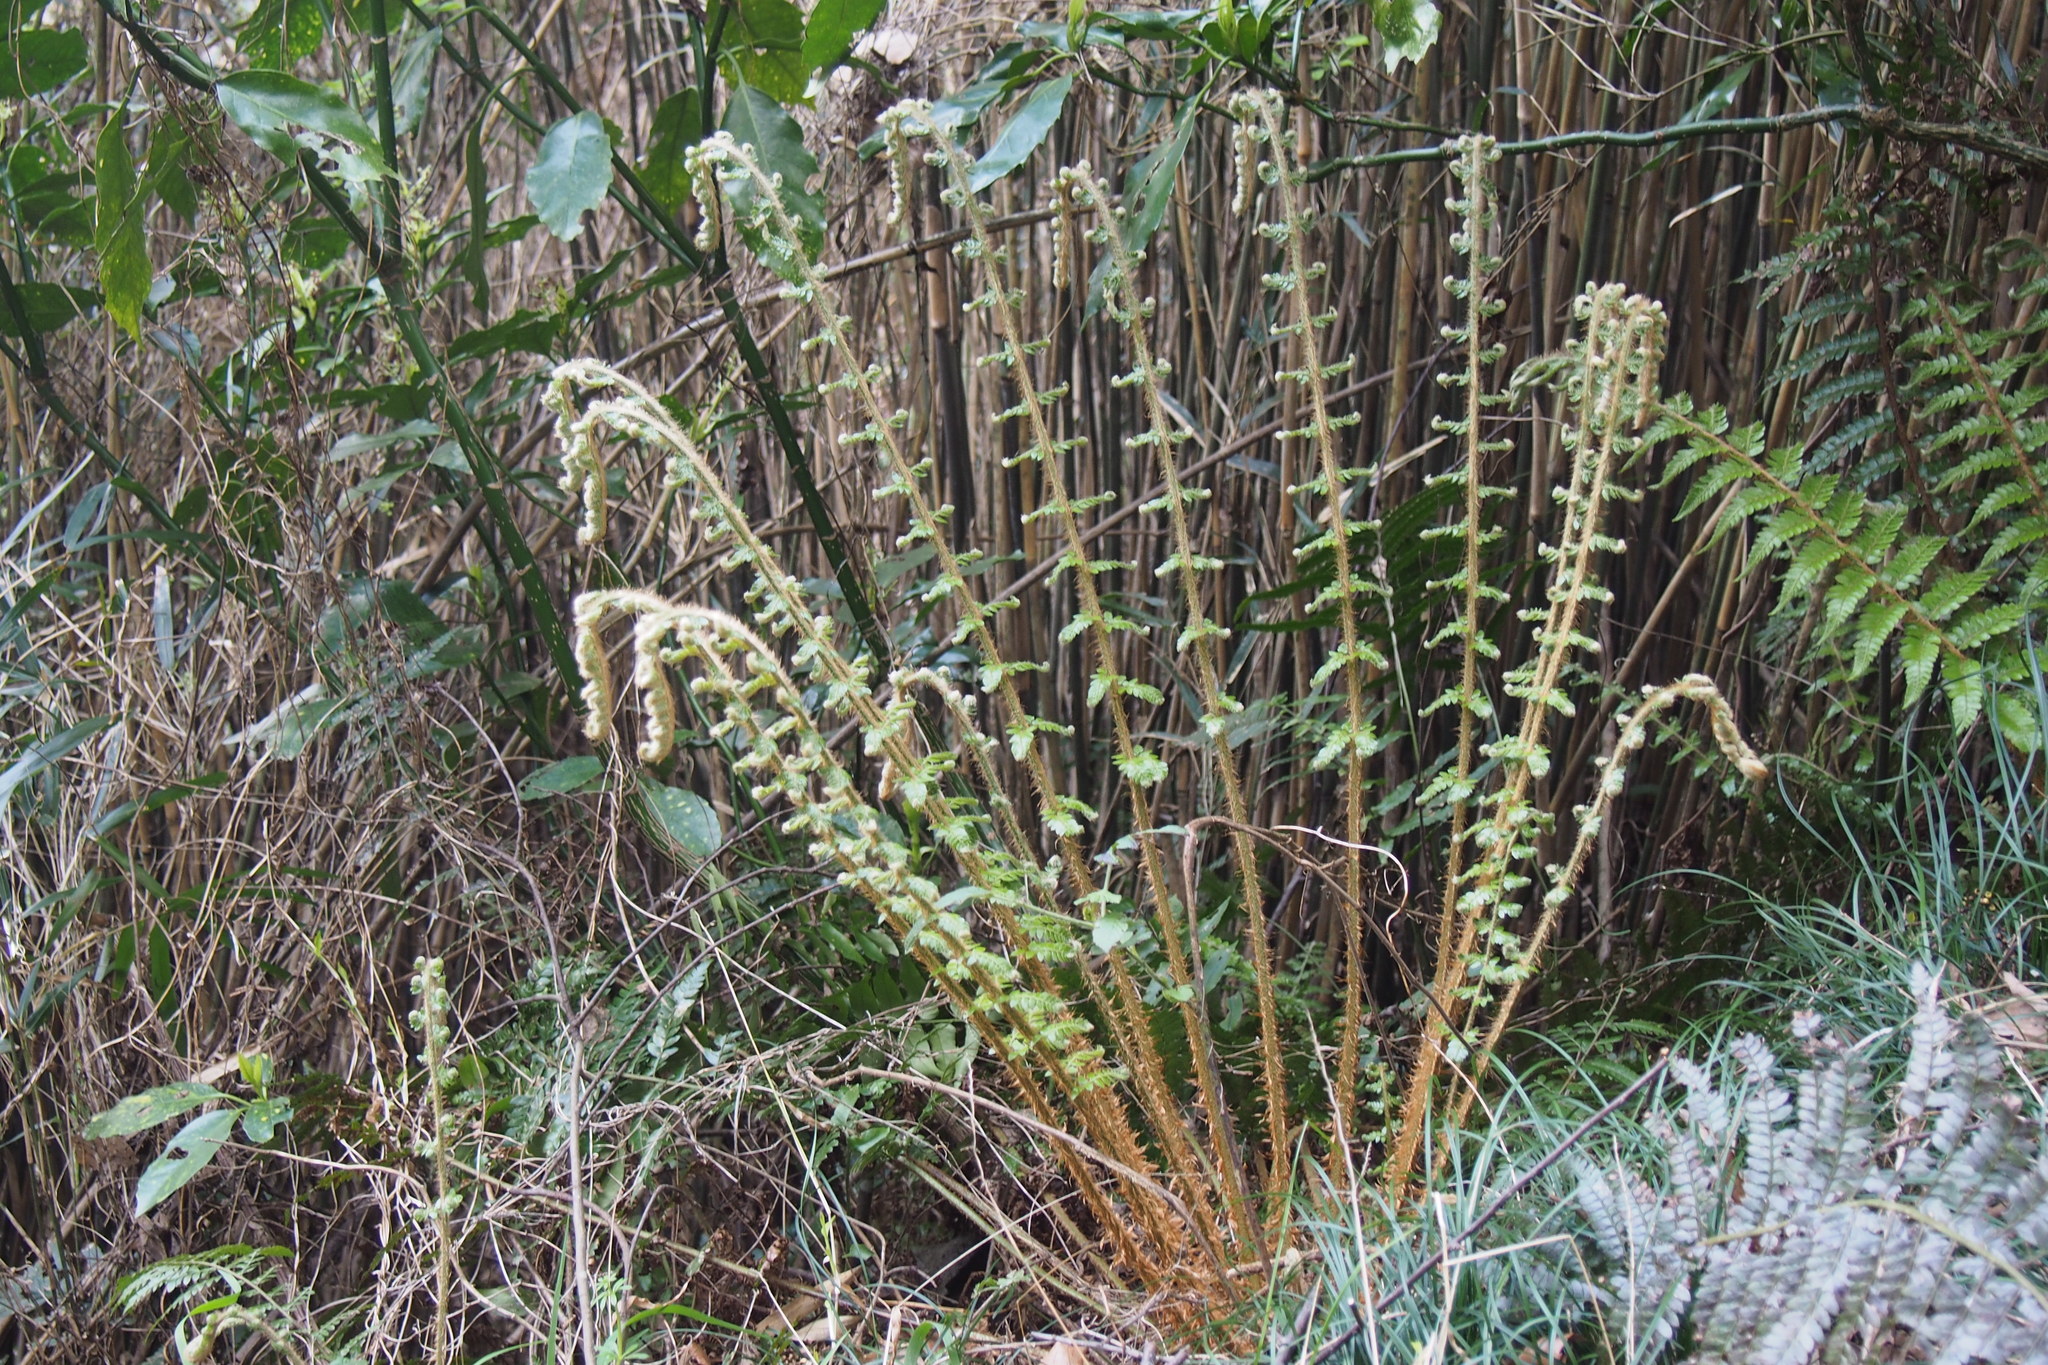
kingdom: Plantae
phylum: Tracheophyta
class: Polypodiopsida
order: Polypodiales
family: Dryopteridaceae
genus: Polystichum
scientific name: Polystichum luctuosum
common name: Korean rockfern
